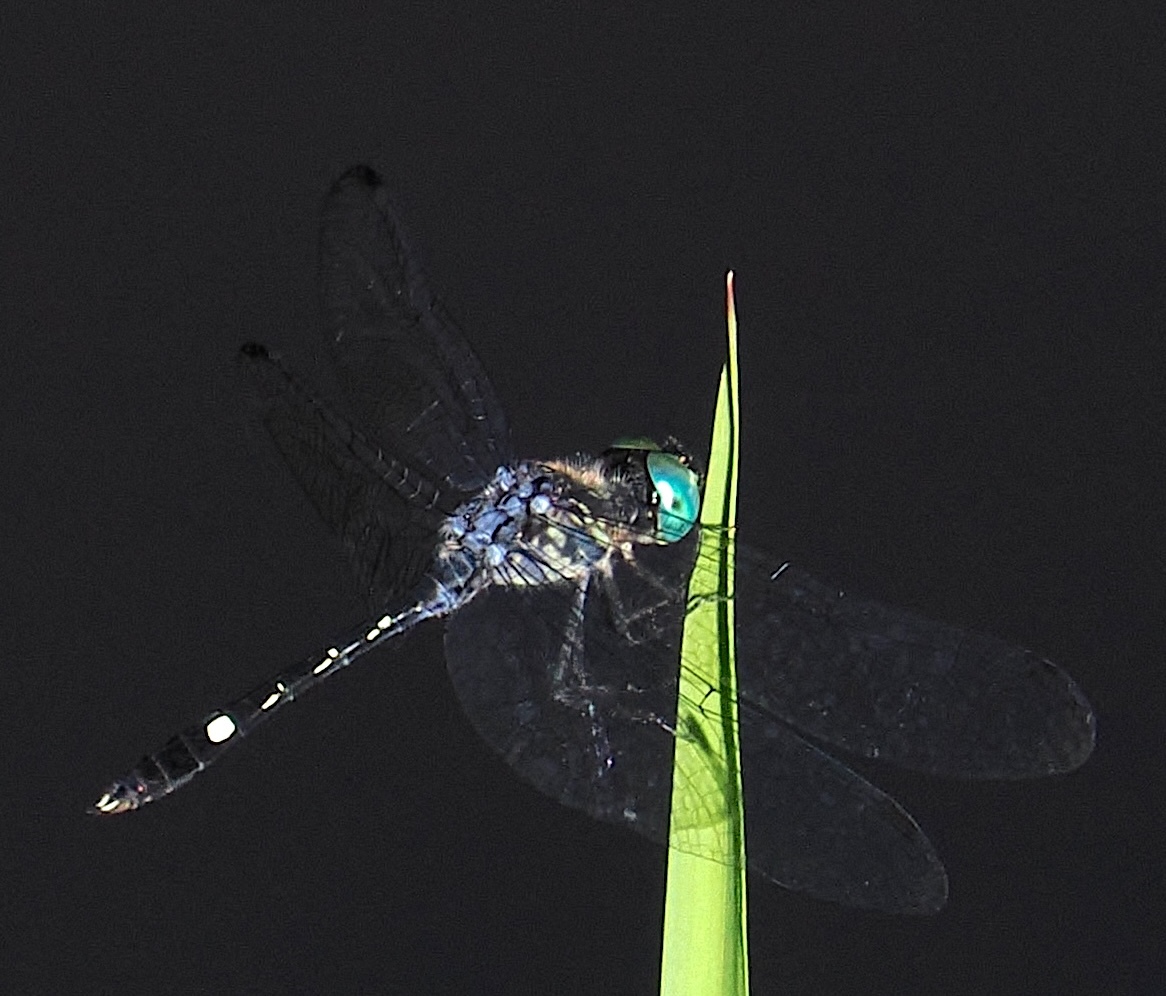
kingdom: Animalia
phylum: Arthropoda
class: Insecta
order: Odonata
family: Libellulidae
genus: Micrathyria
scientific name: Micrathyria hesperis
